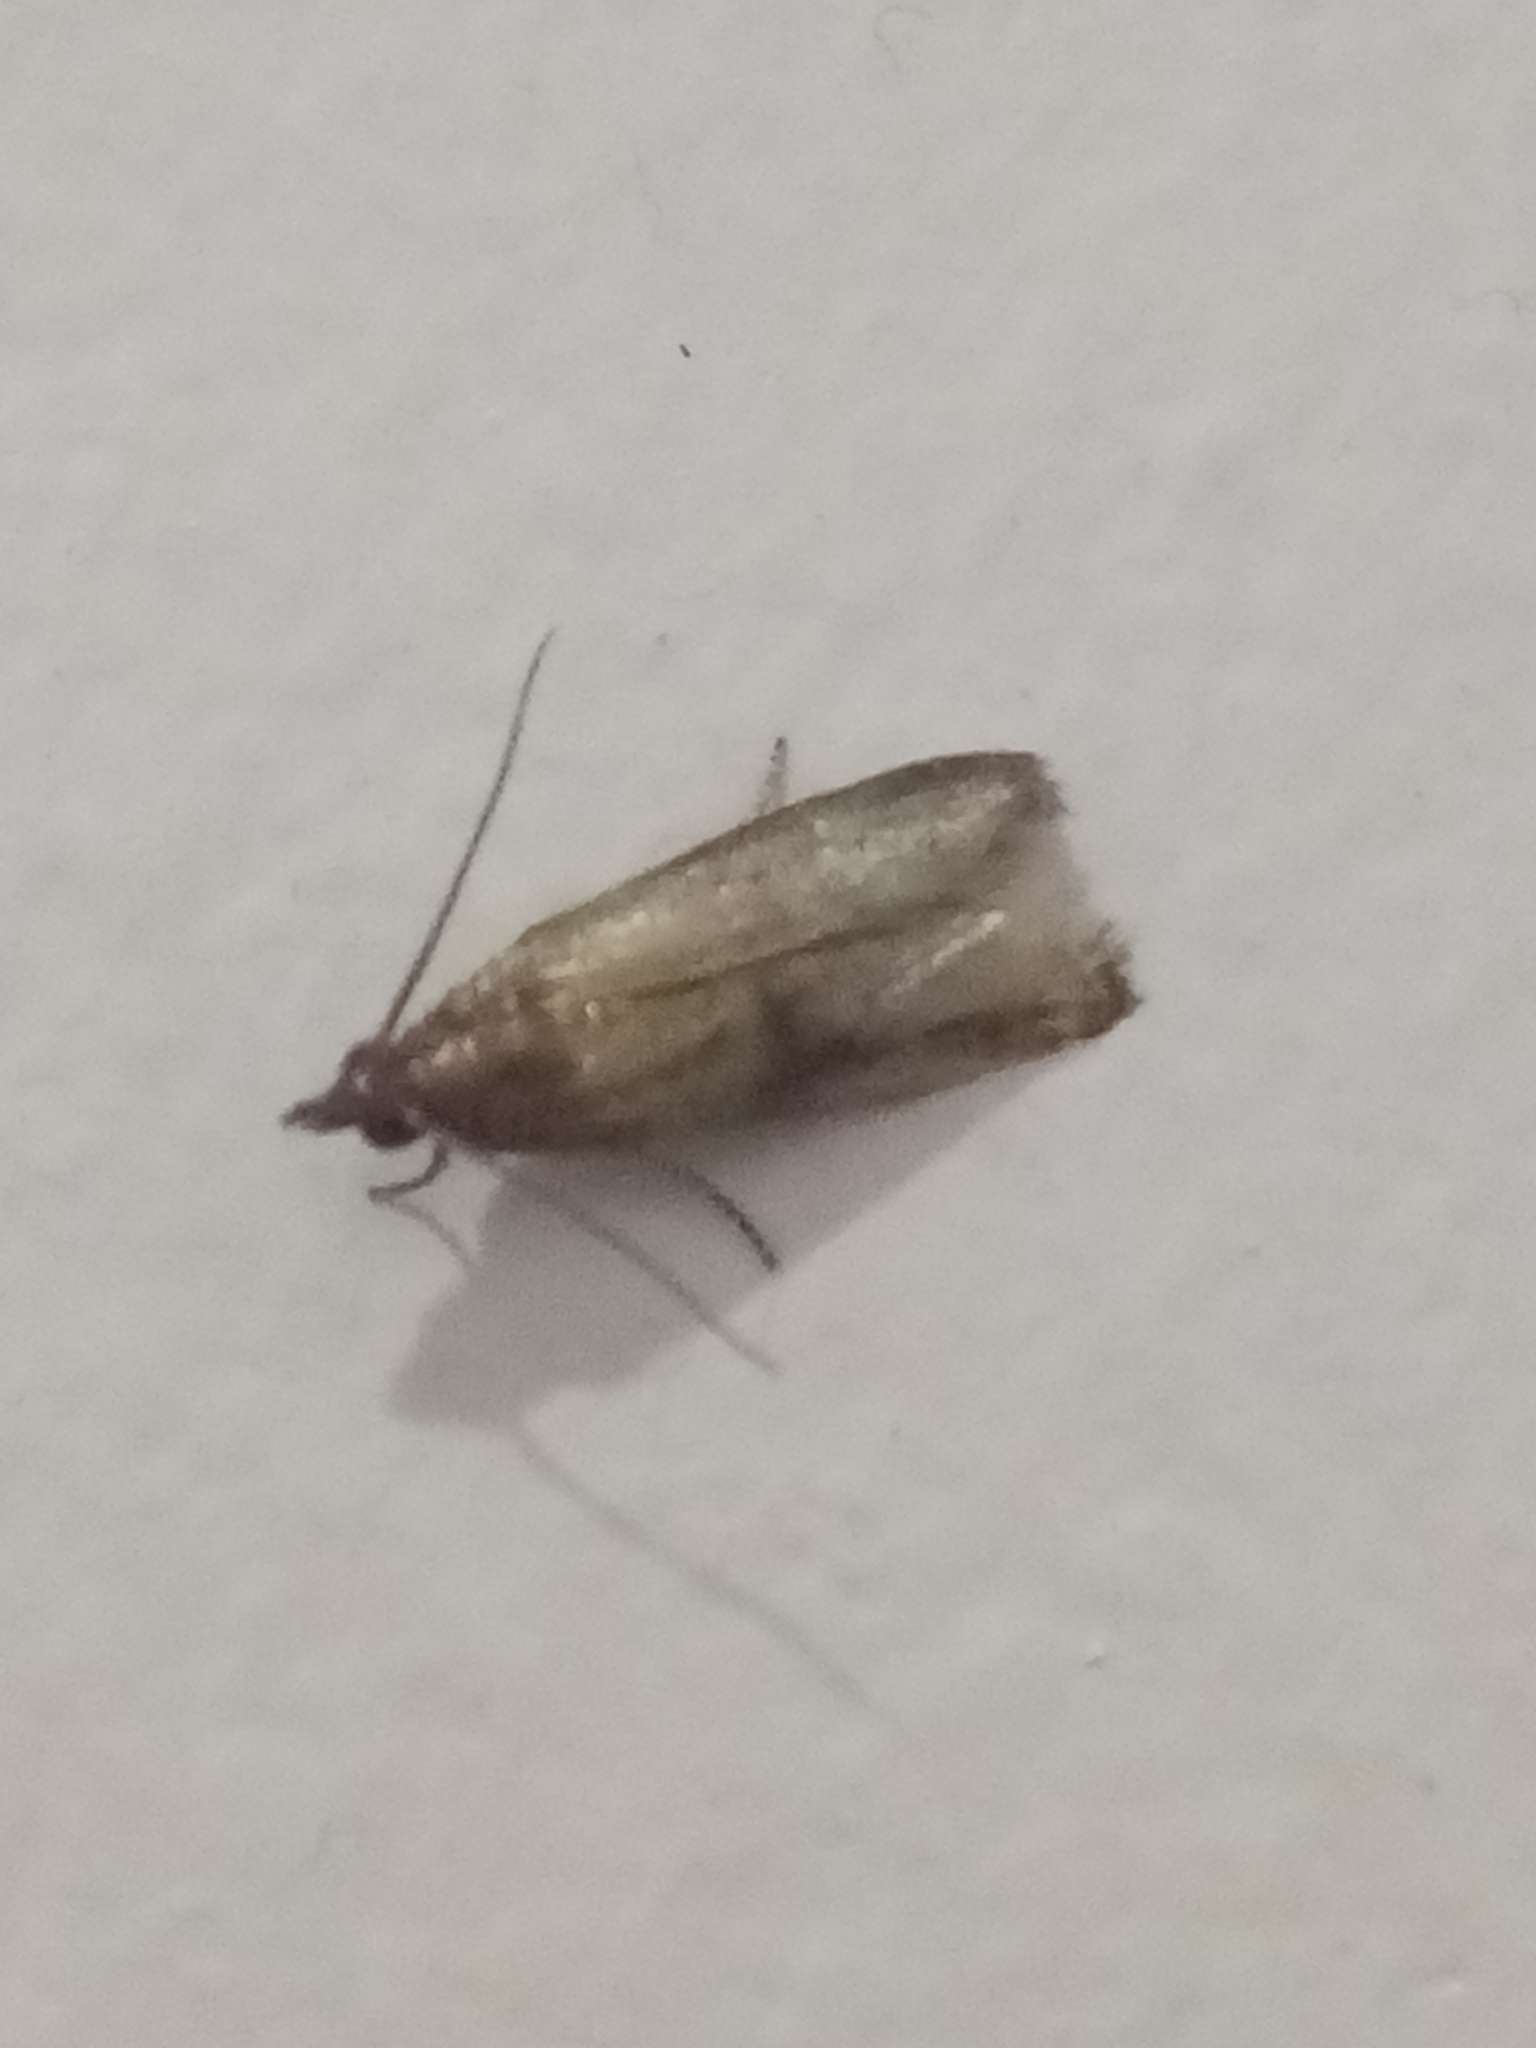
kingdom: Animalia
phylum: Arthropoda
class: Insecta
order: Lepidoptera
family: Pyralidae
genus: Plodia
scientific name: Plodia interpunctella
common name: Indian meal moth
